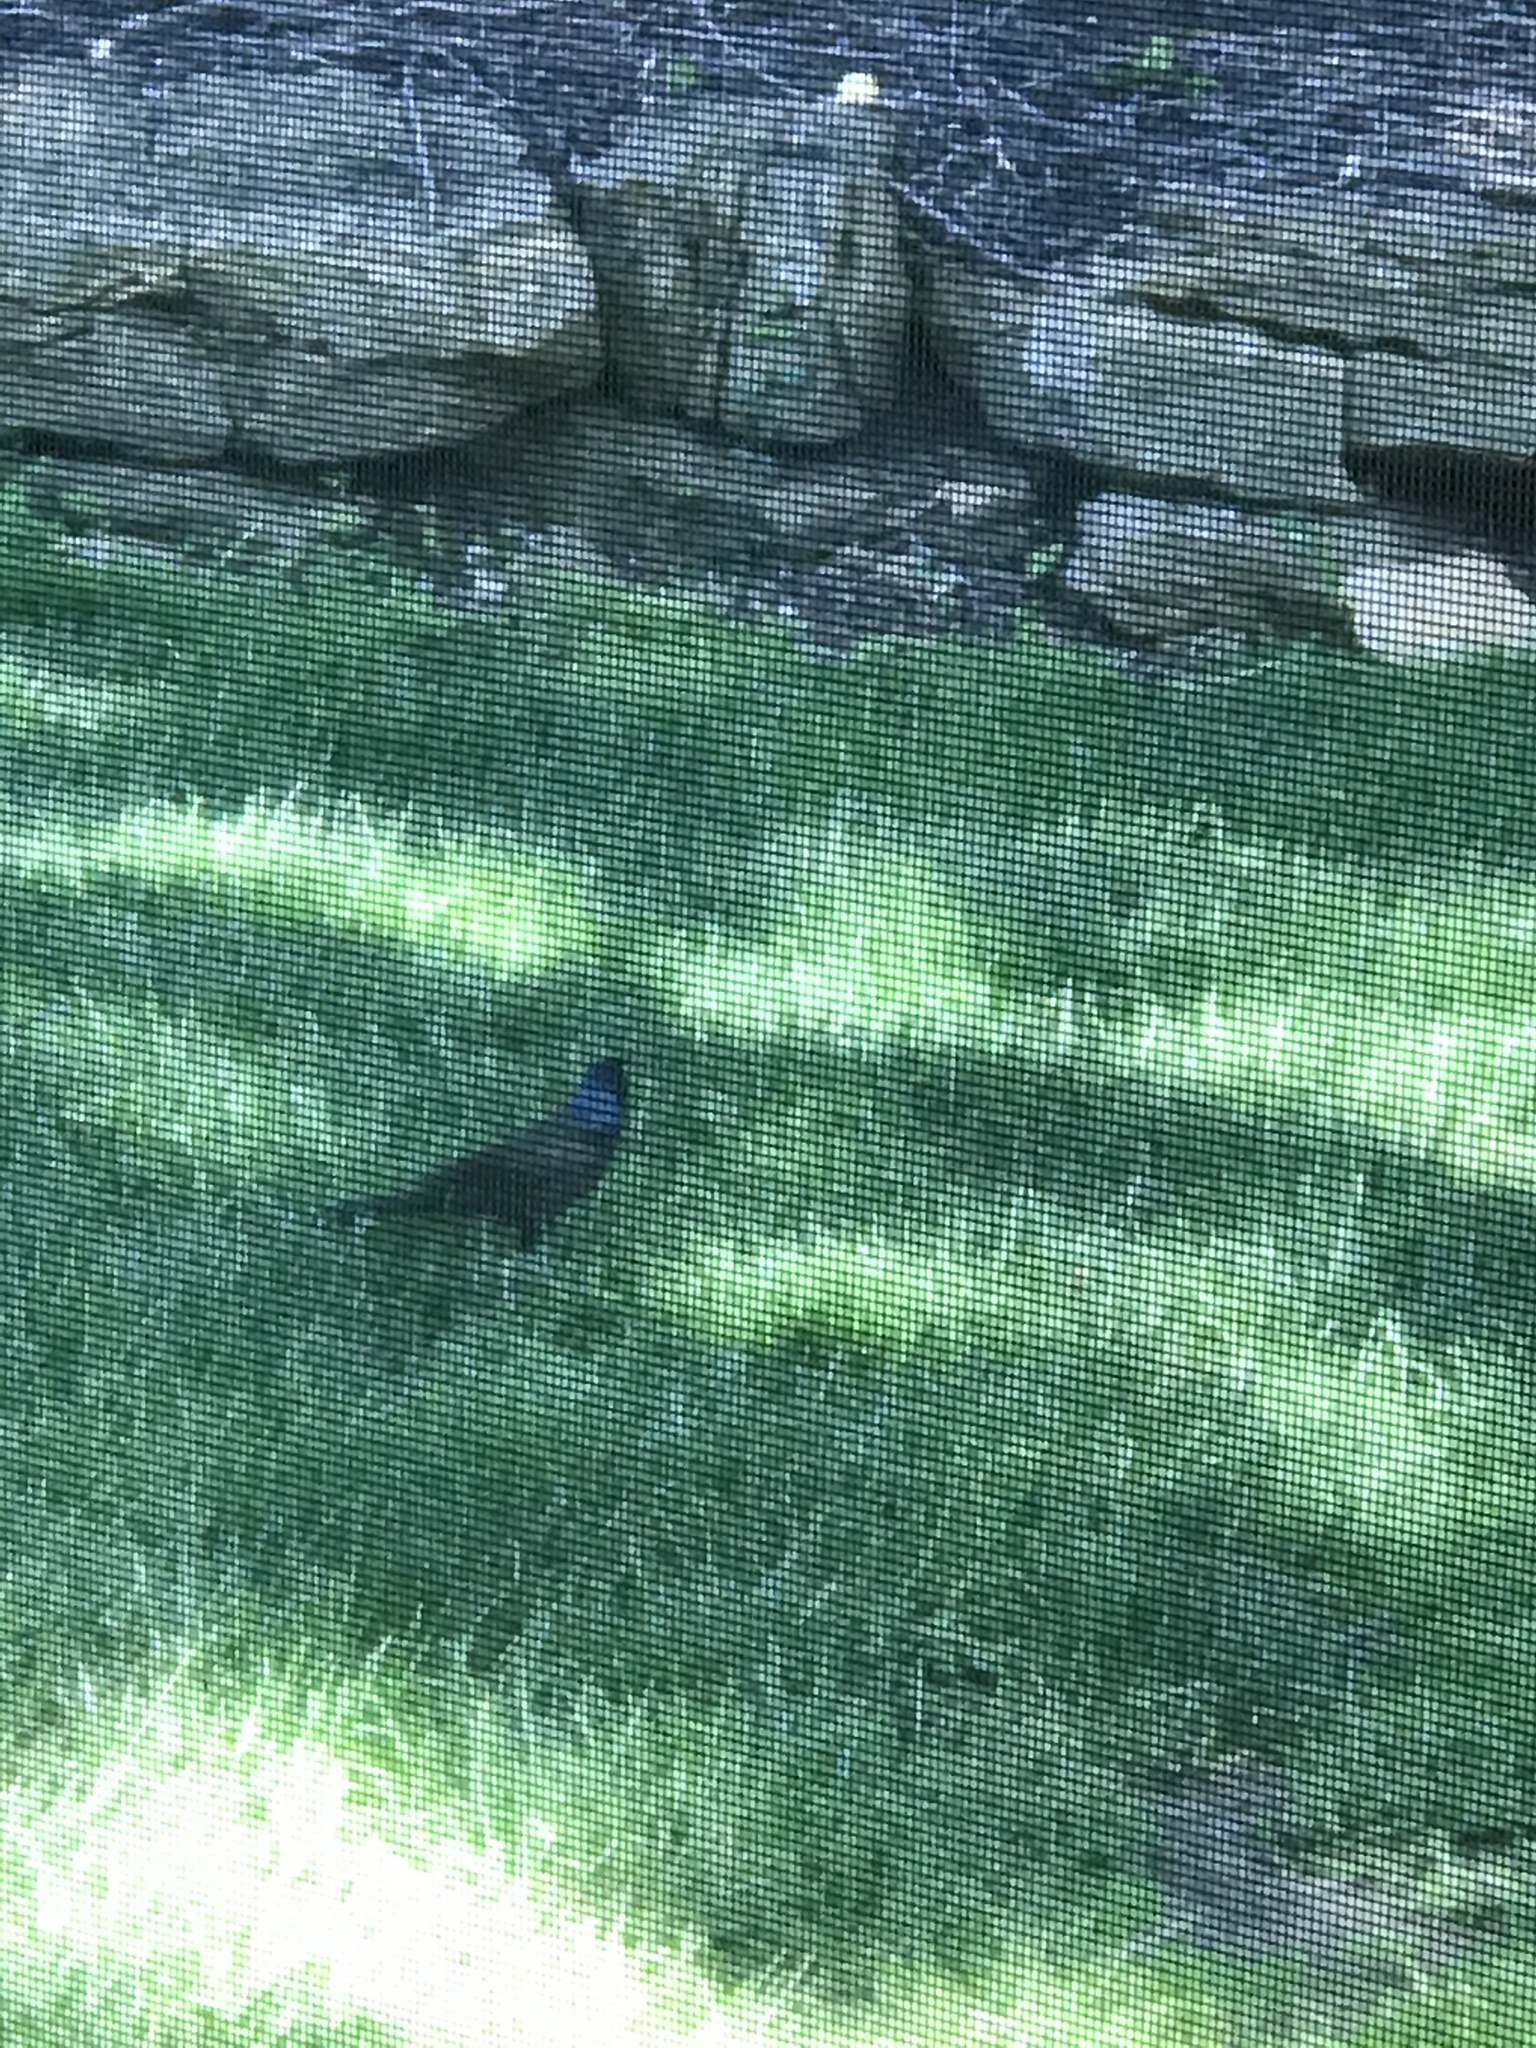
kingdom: Animalia
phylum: Chordata
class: Aves
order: Passeriformes
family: Icteridae
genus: Quiscalus
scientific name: Quiscalus quiscula
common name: Common grackle
